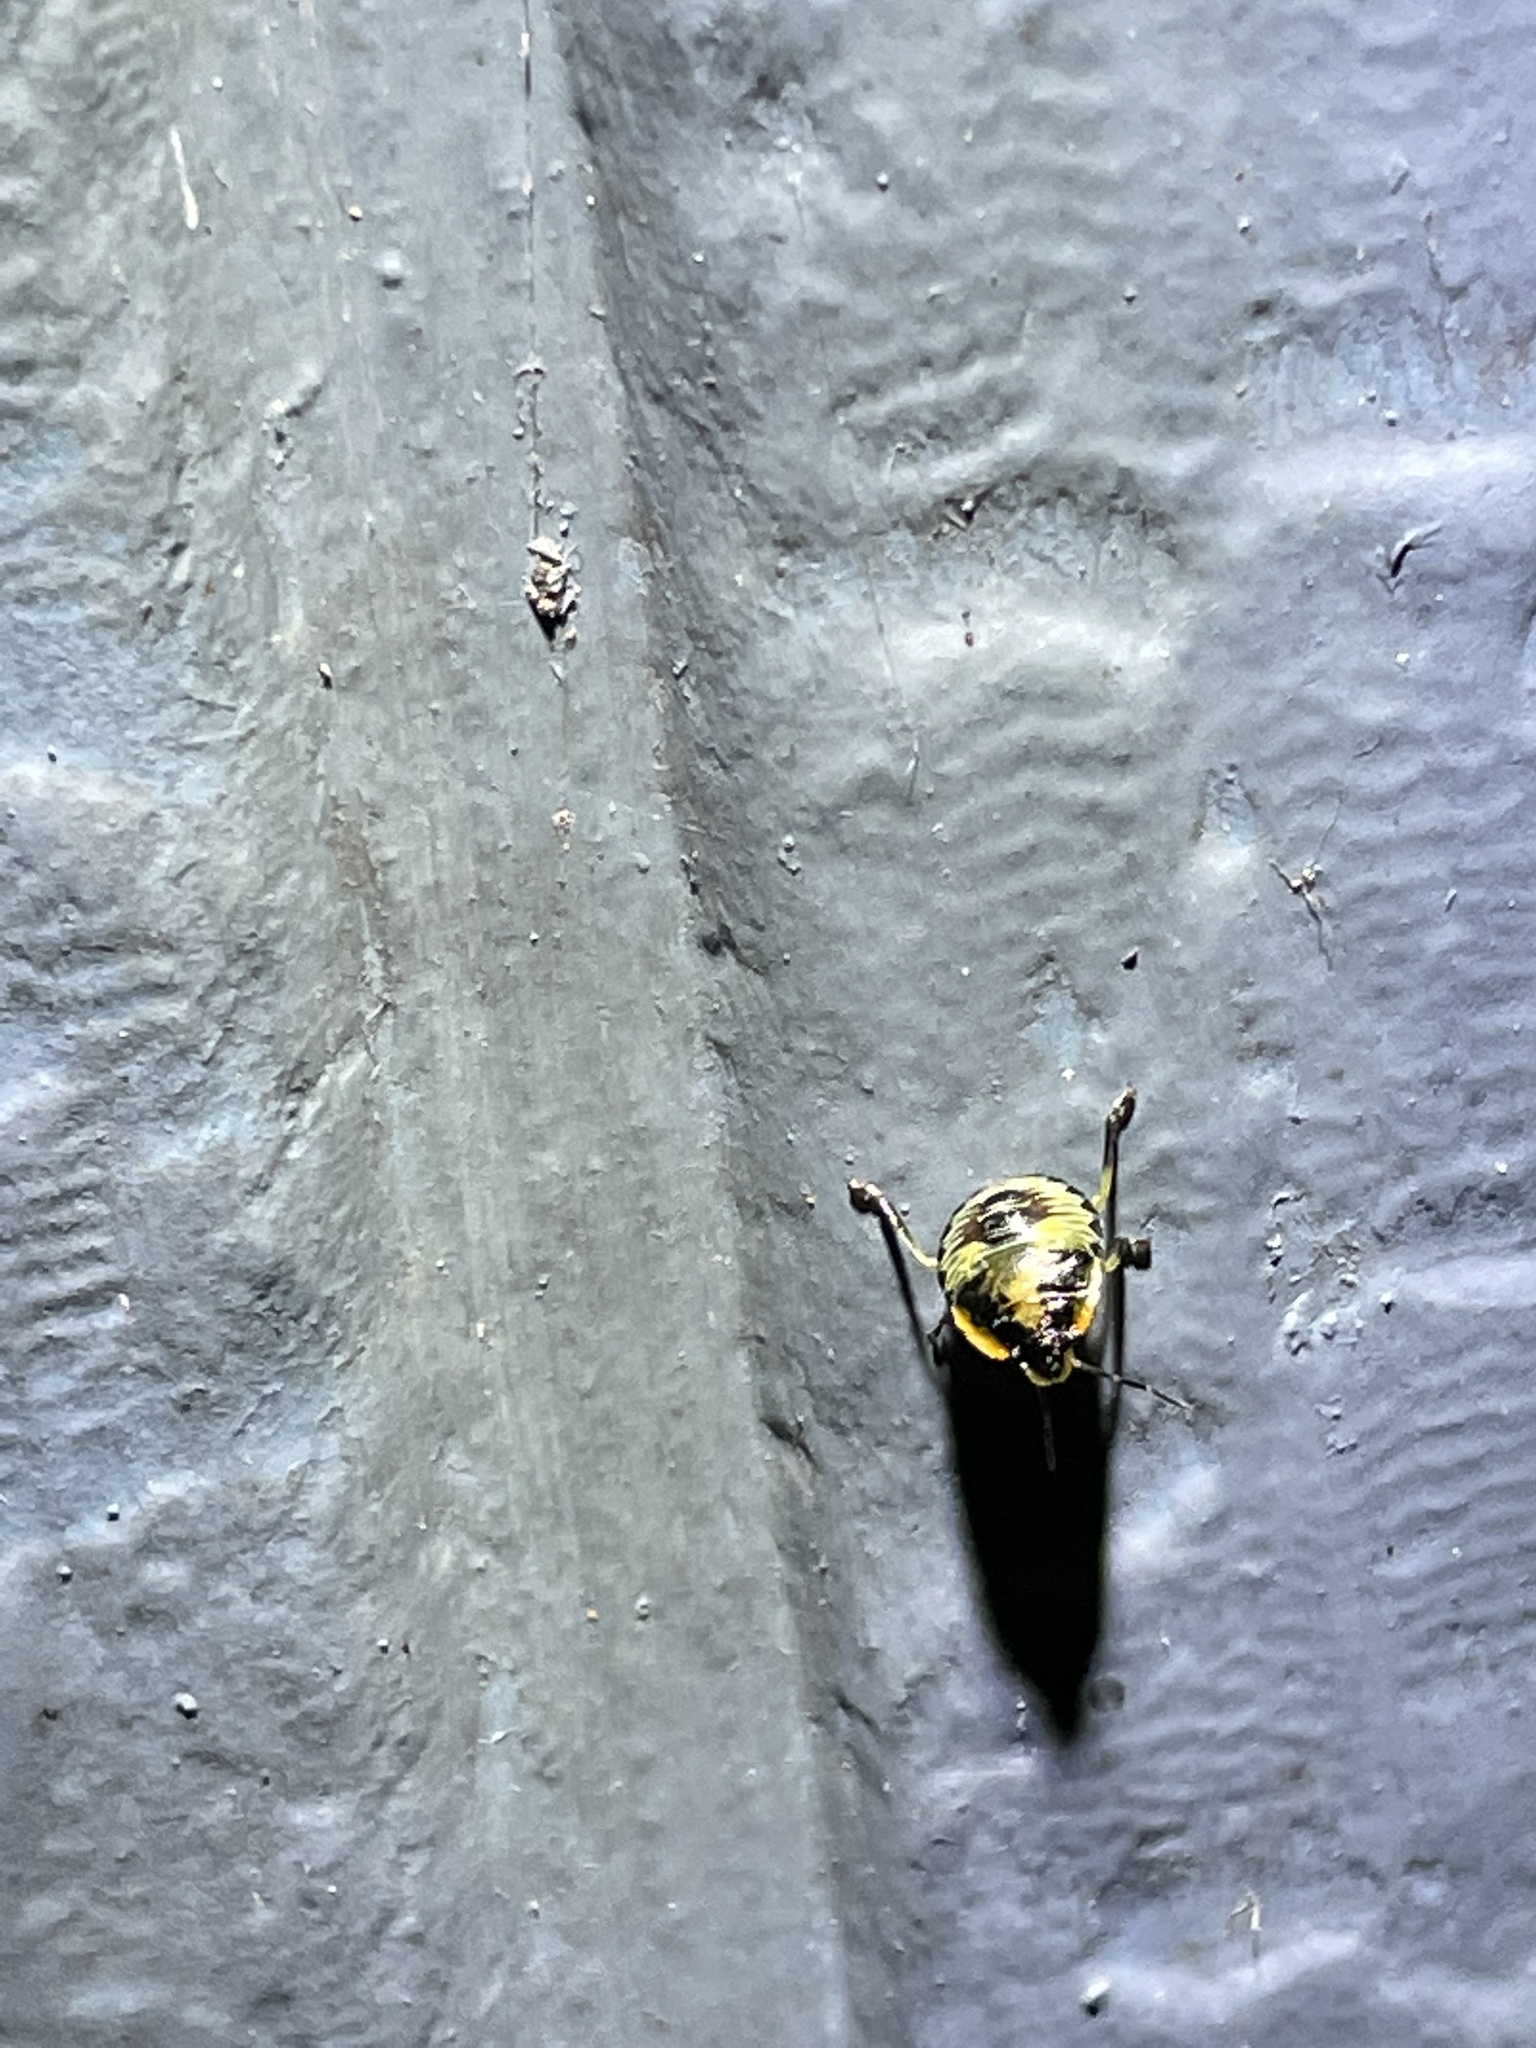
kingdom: Animalia
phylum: Arthropoda
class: Insecta
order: Hemiptera
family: Pentatomidae
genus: Chinavia
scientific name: Chinavia hilaris
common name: Green stink bug
